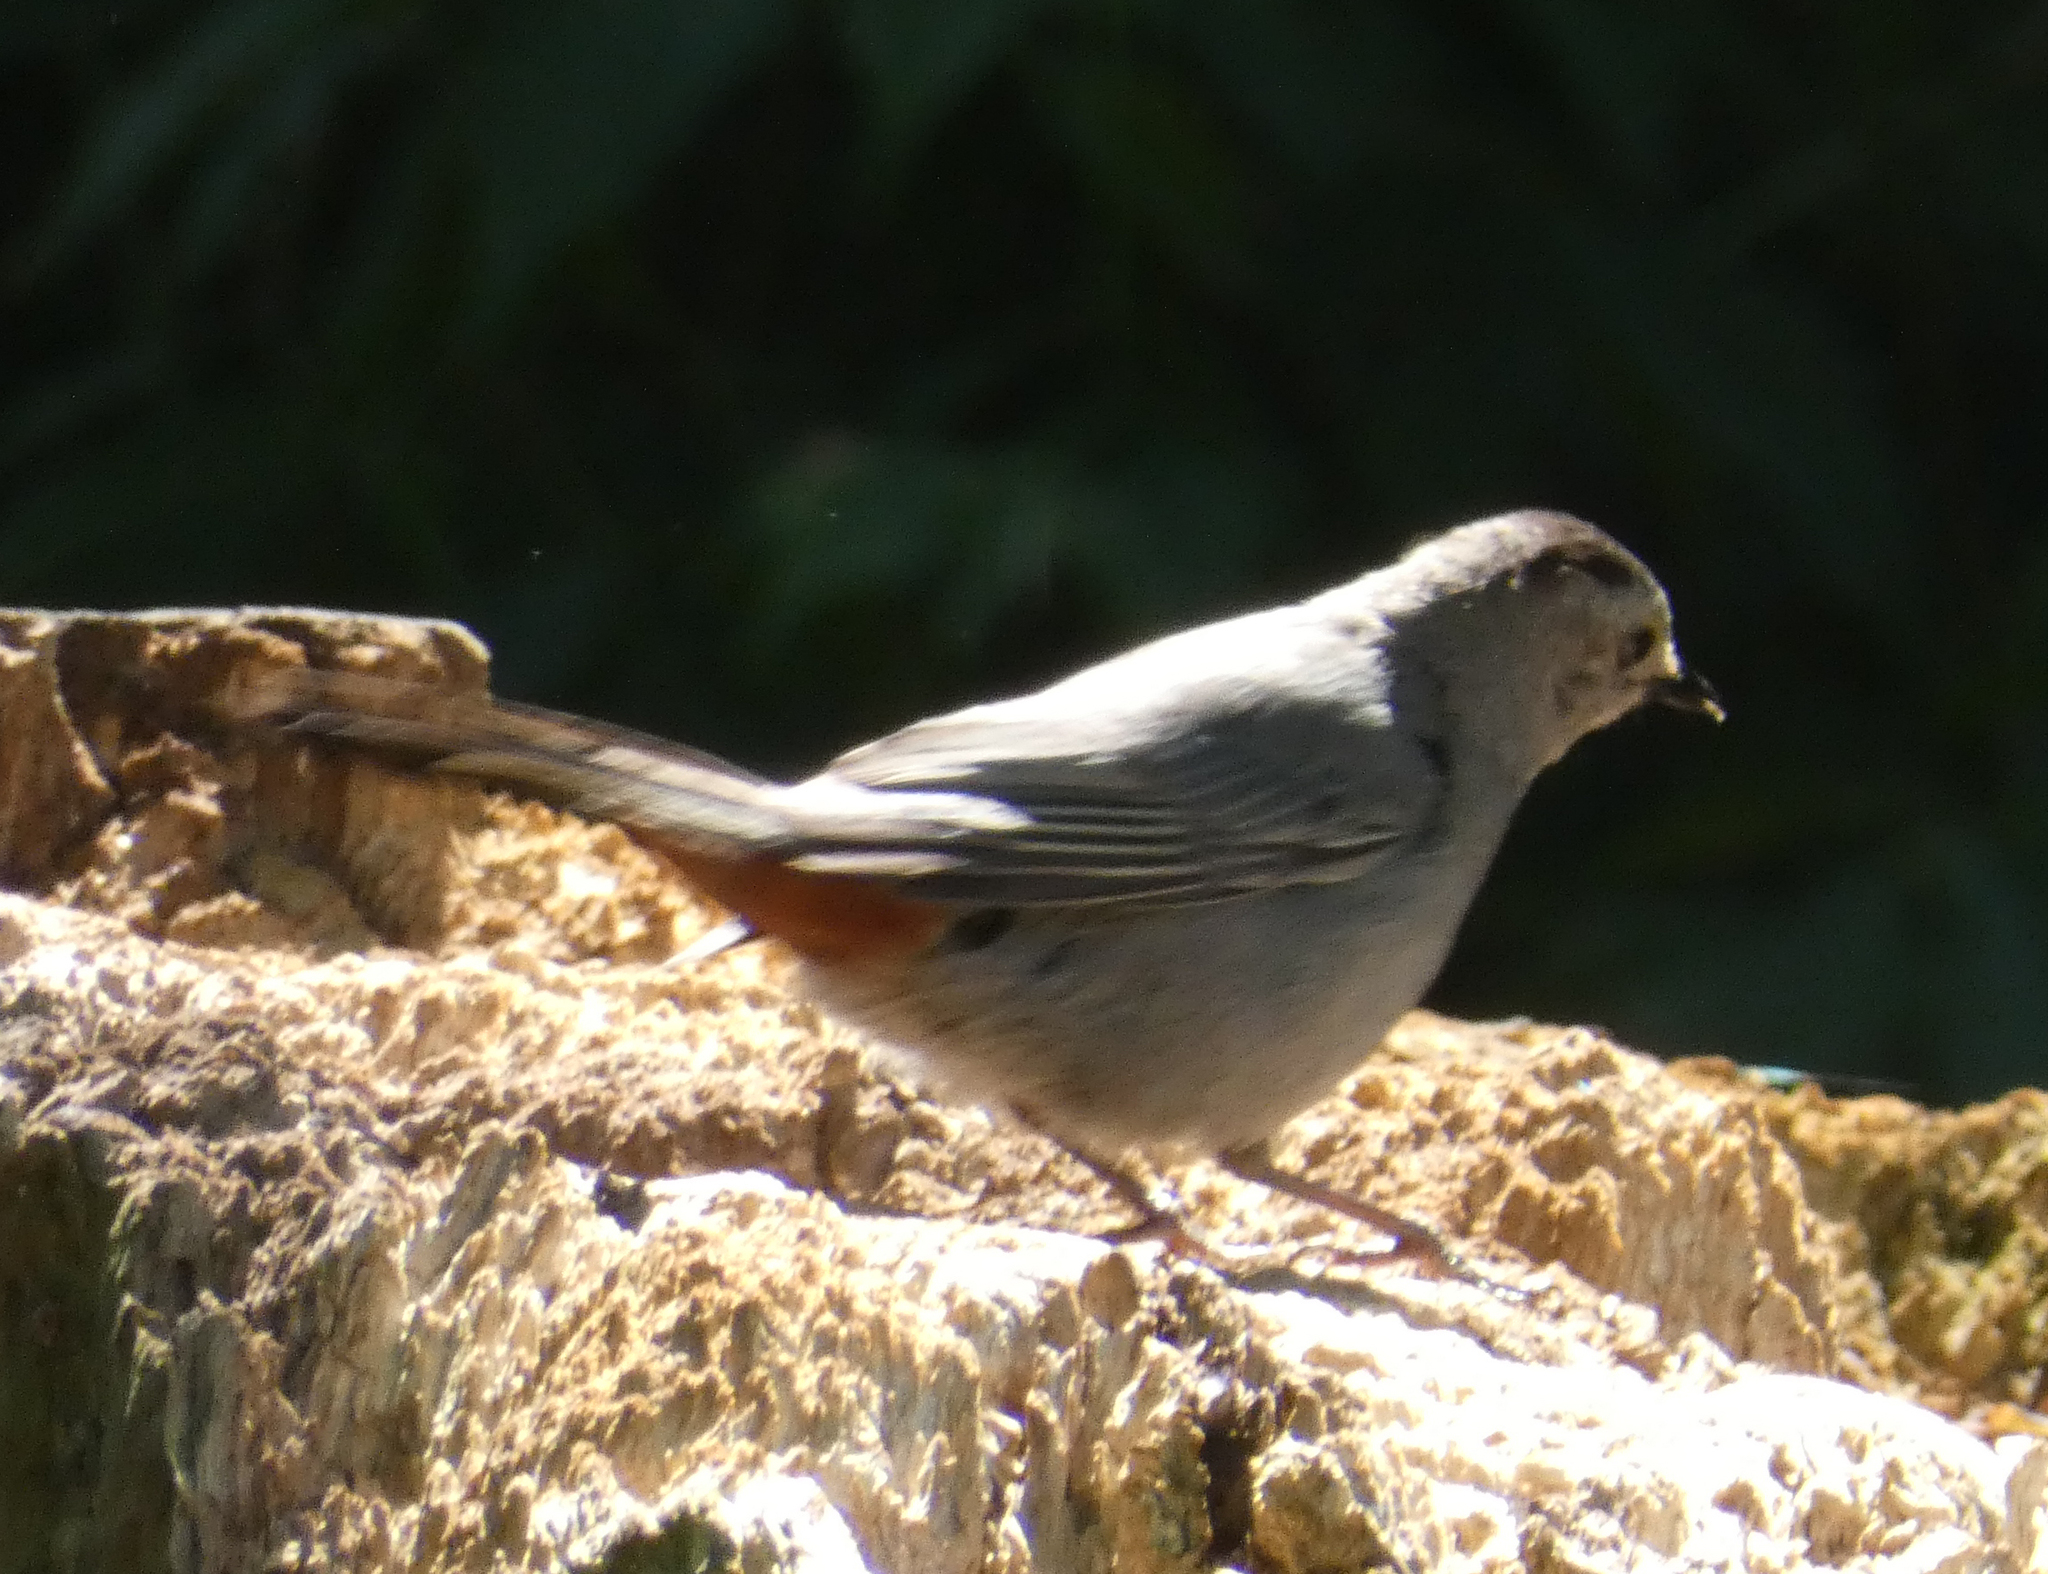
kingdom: Animalia
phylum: Chordata
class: Aves
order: Passeriformes
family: Mimidae
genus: Dumetella
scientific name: Dumetella carolinensis
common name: Gray catbird
